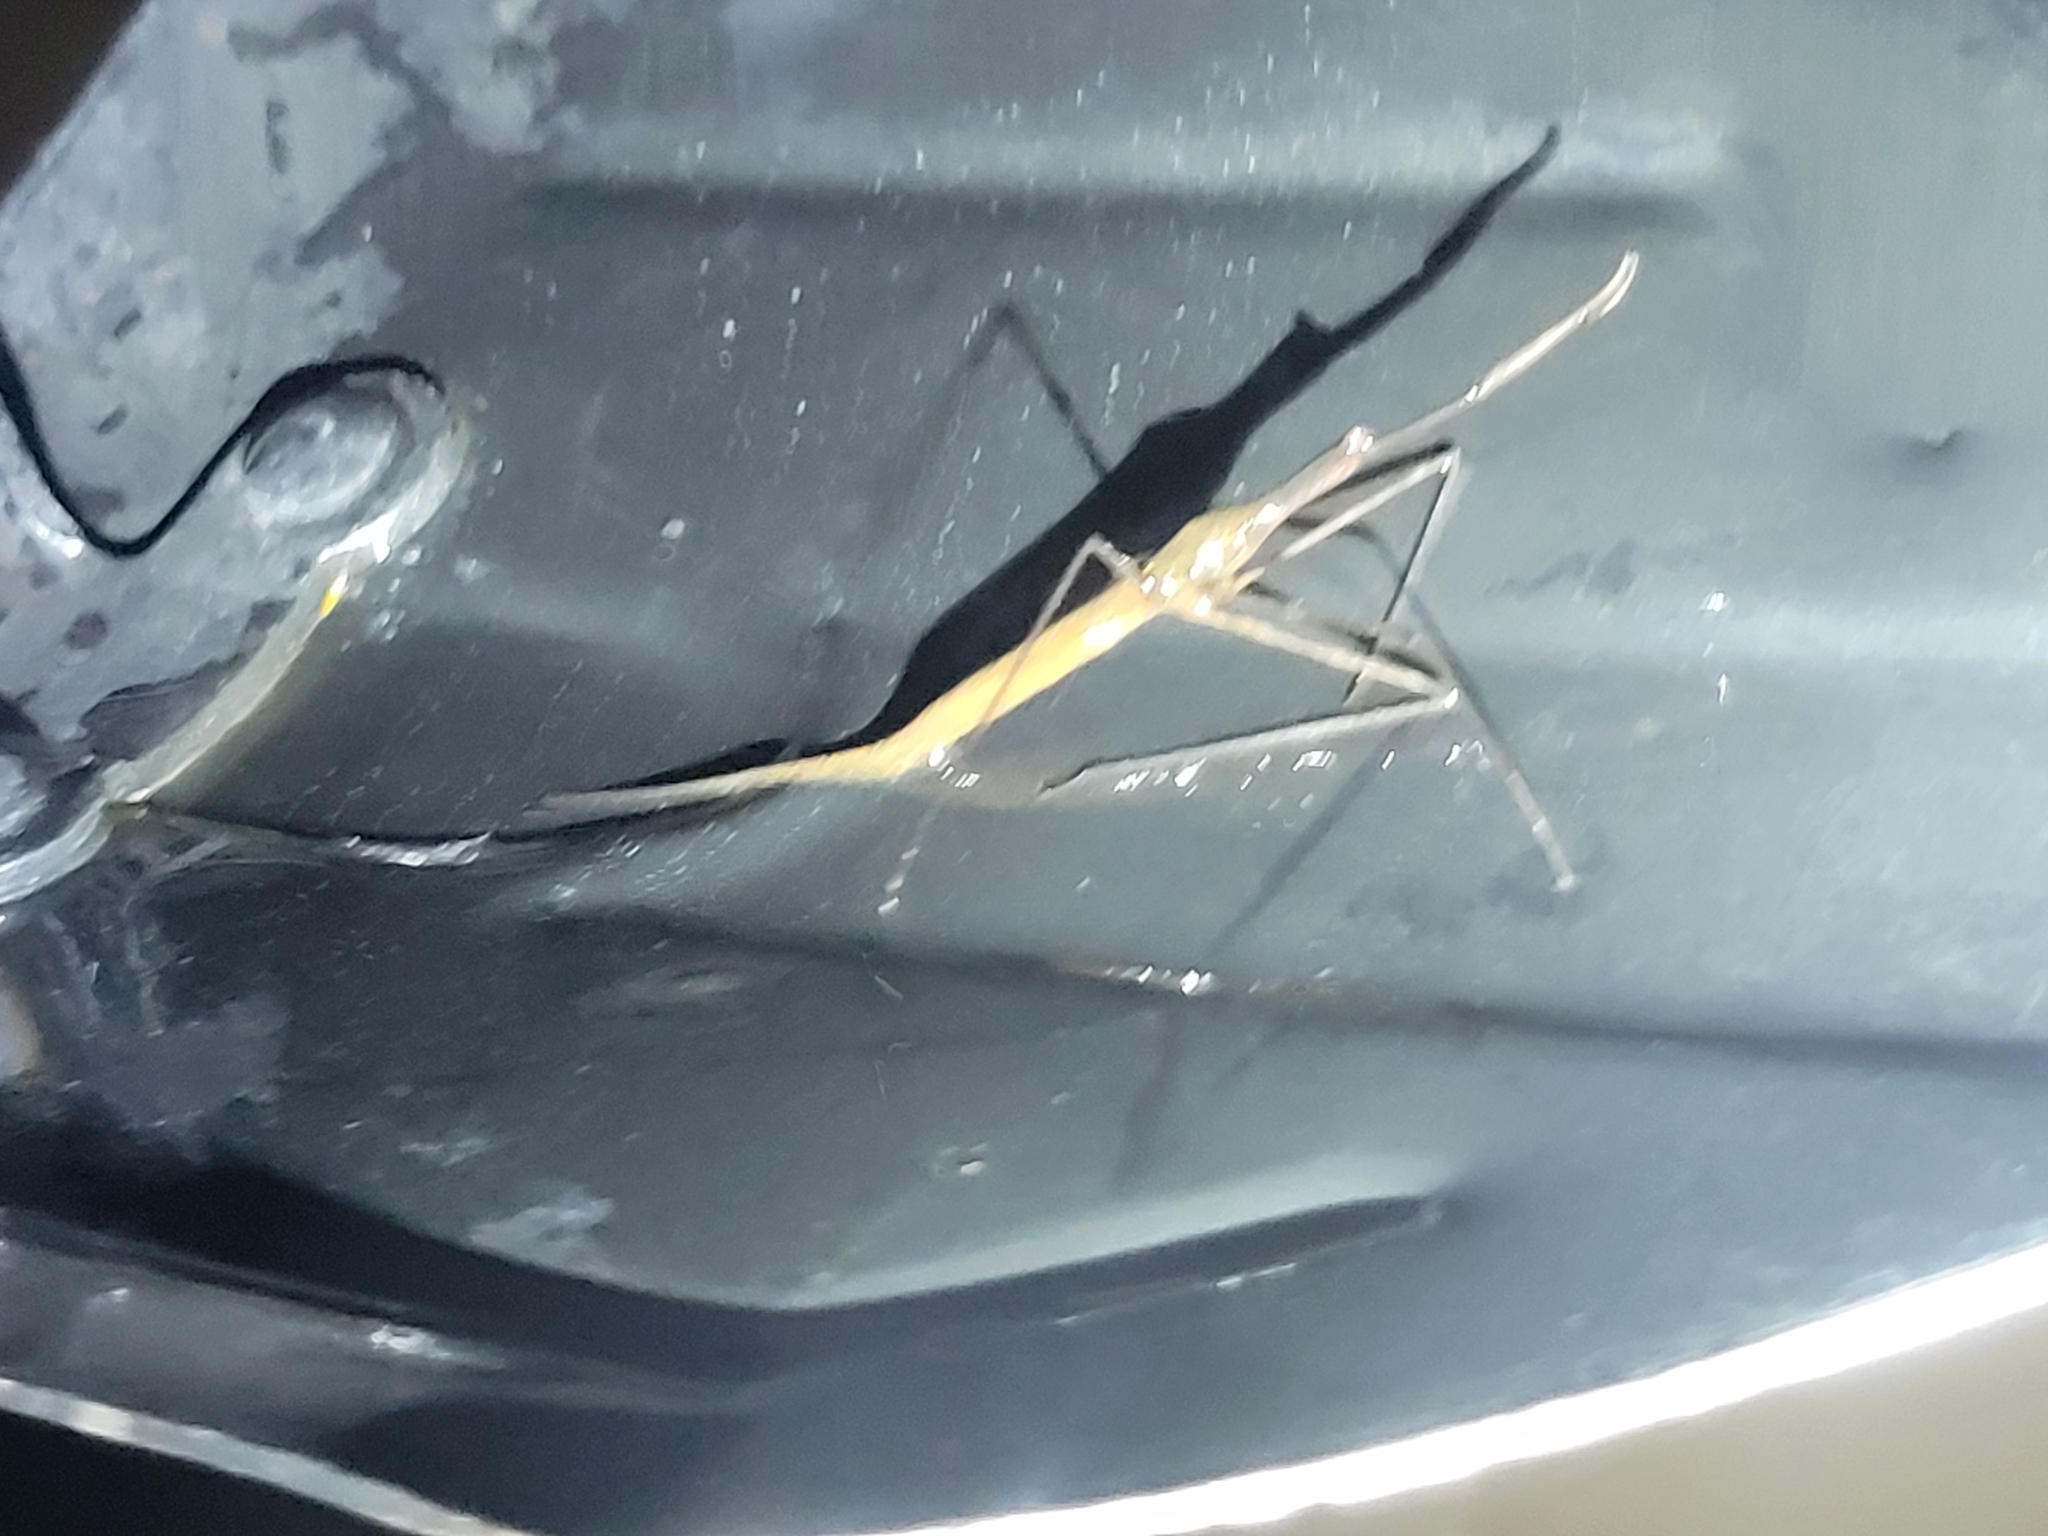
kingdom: Animalia
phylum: Arthropoda
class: Insecta
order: Hemiptera
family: Nepidae
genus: Ranatra
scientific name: Ranatra
